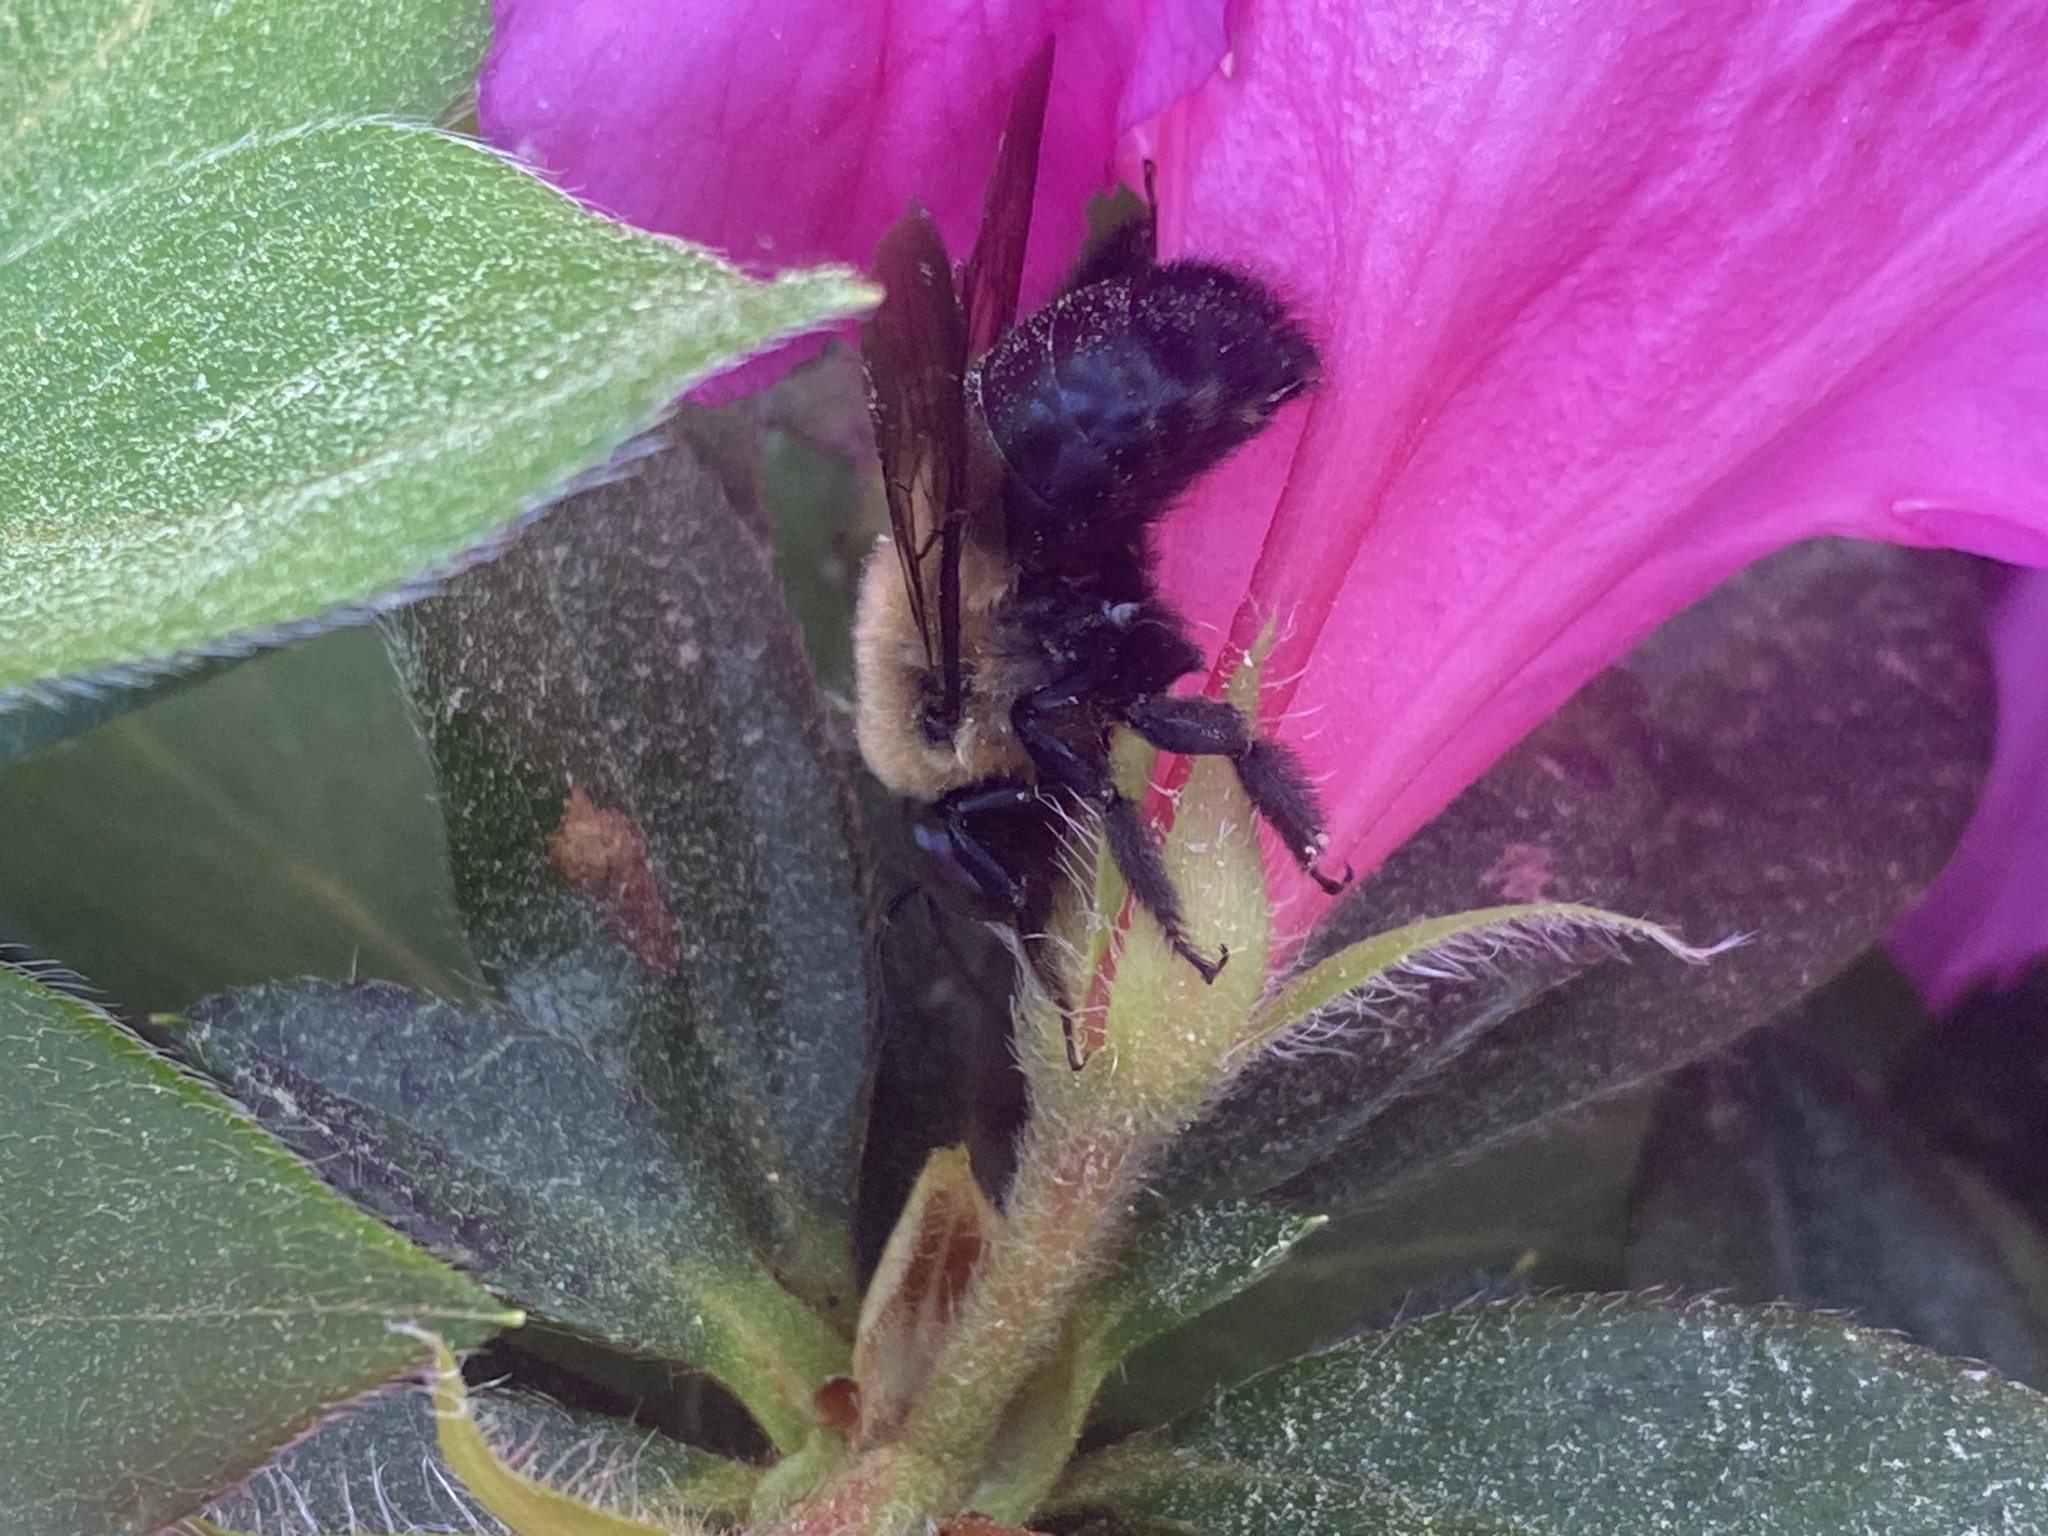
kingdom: Animalia
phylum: Arthropoda
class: Insecta
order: Hymenoptera
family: Apidae
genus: Xylocopa
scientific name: Xylocopa virginica
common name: Carpenter bee
